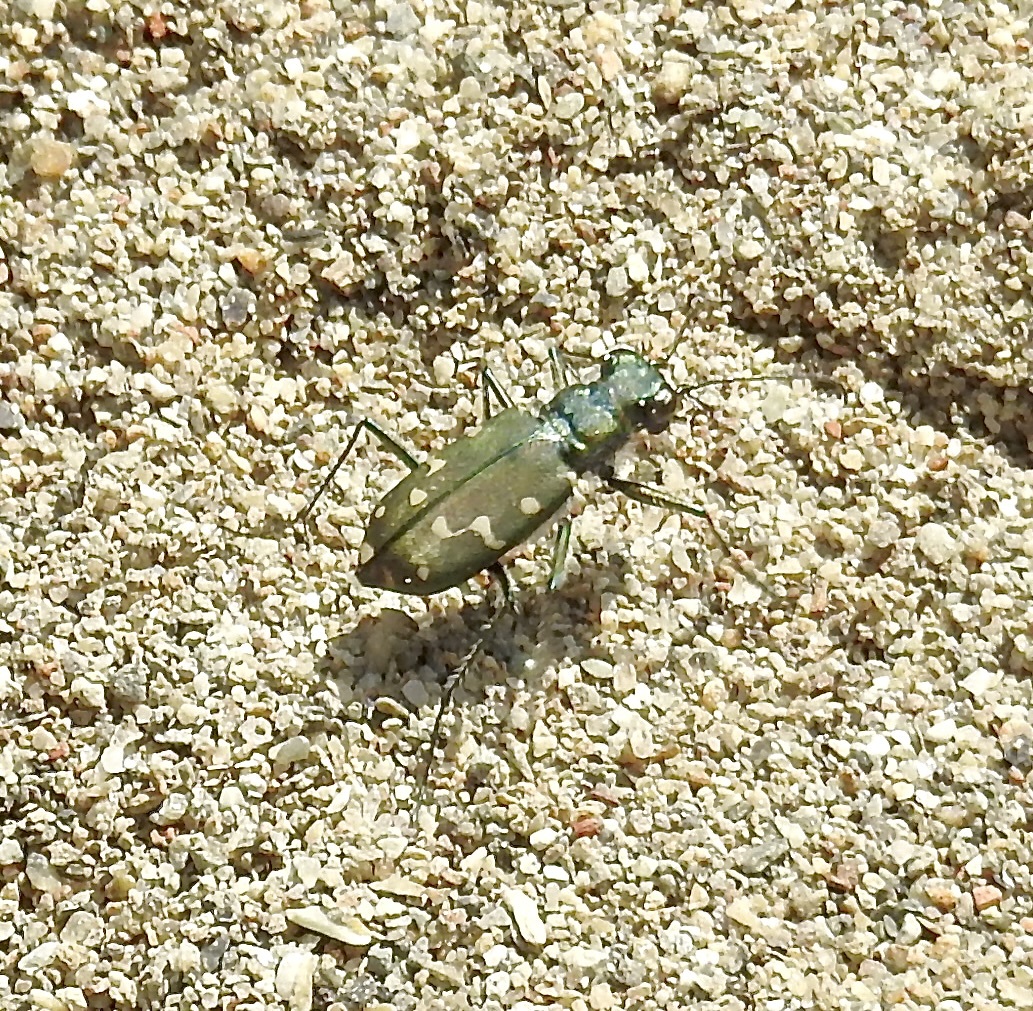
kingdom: Animalia
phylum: Arthropoda
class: Insecta
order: Coleoptera
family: Carabidae
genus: Cicindela
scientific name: Cicindela oregona
